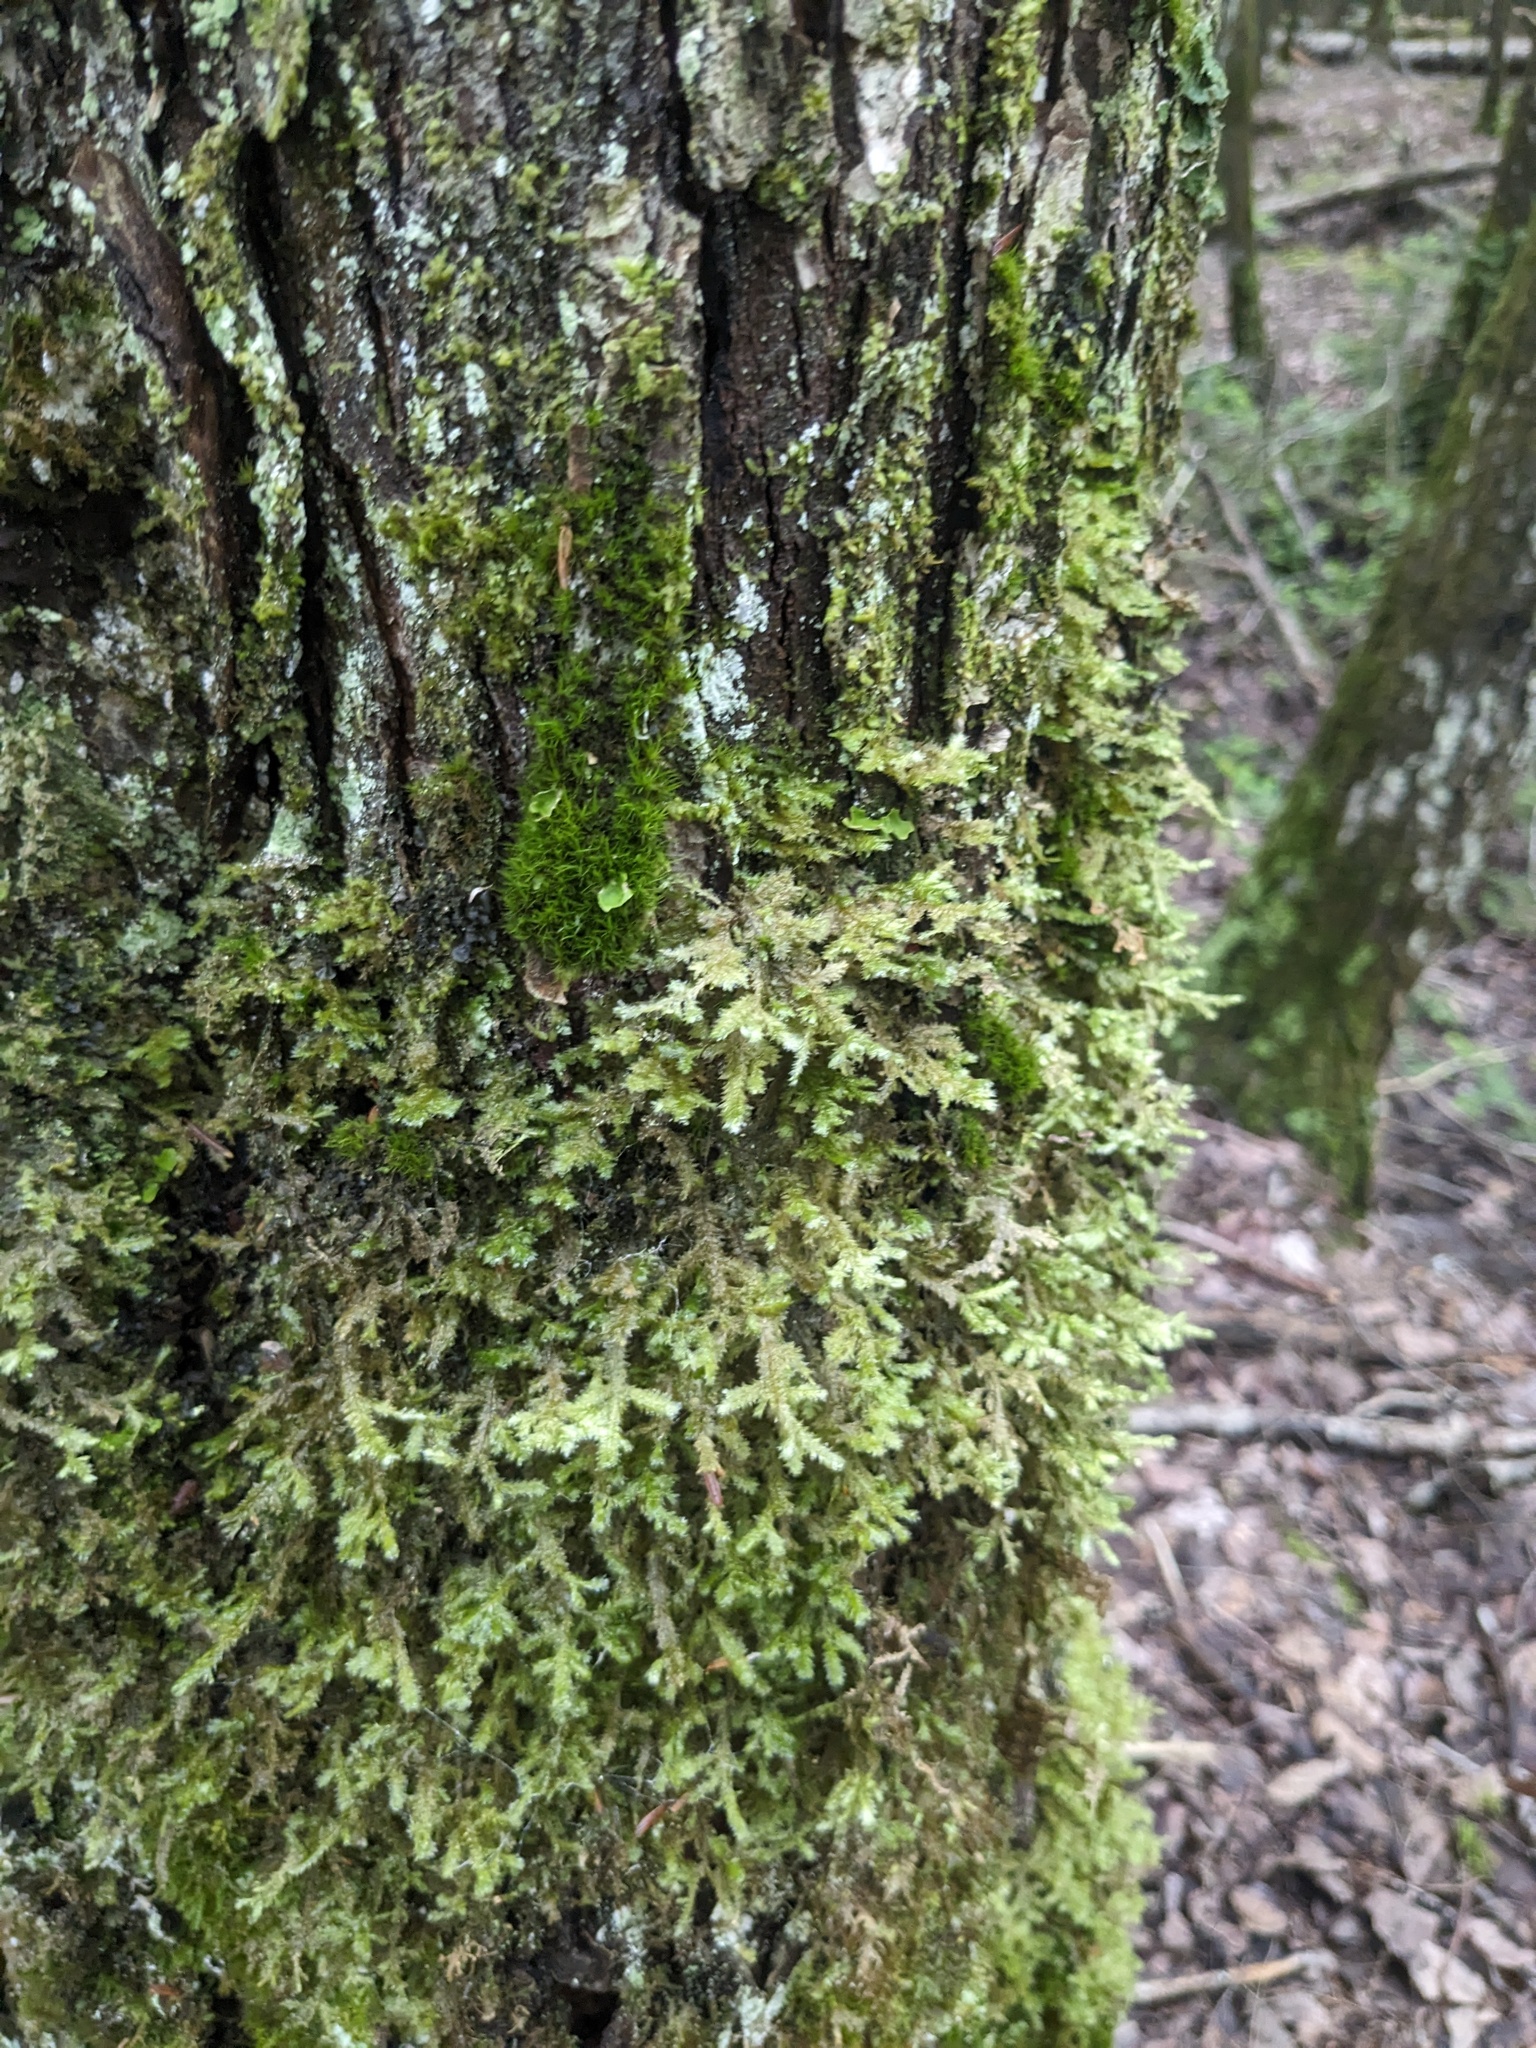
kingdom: Plantae
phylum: Bryophyta
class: Bryopsida
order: Hypnales
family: Neckeraceae
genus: Neckera
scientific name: Neckera pennata
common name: Feathery neckera
